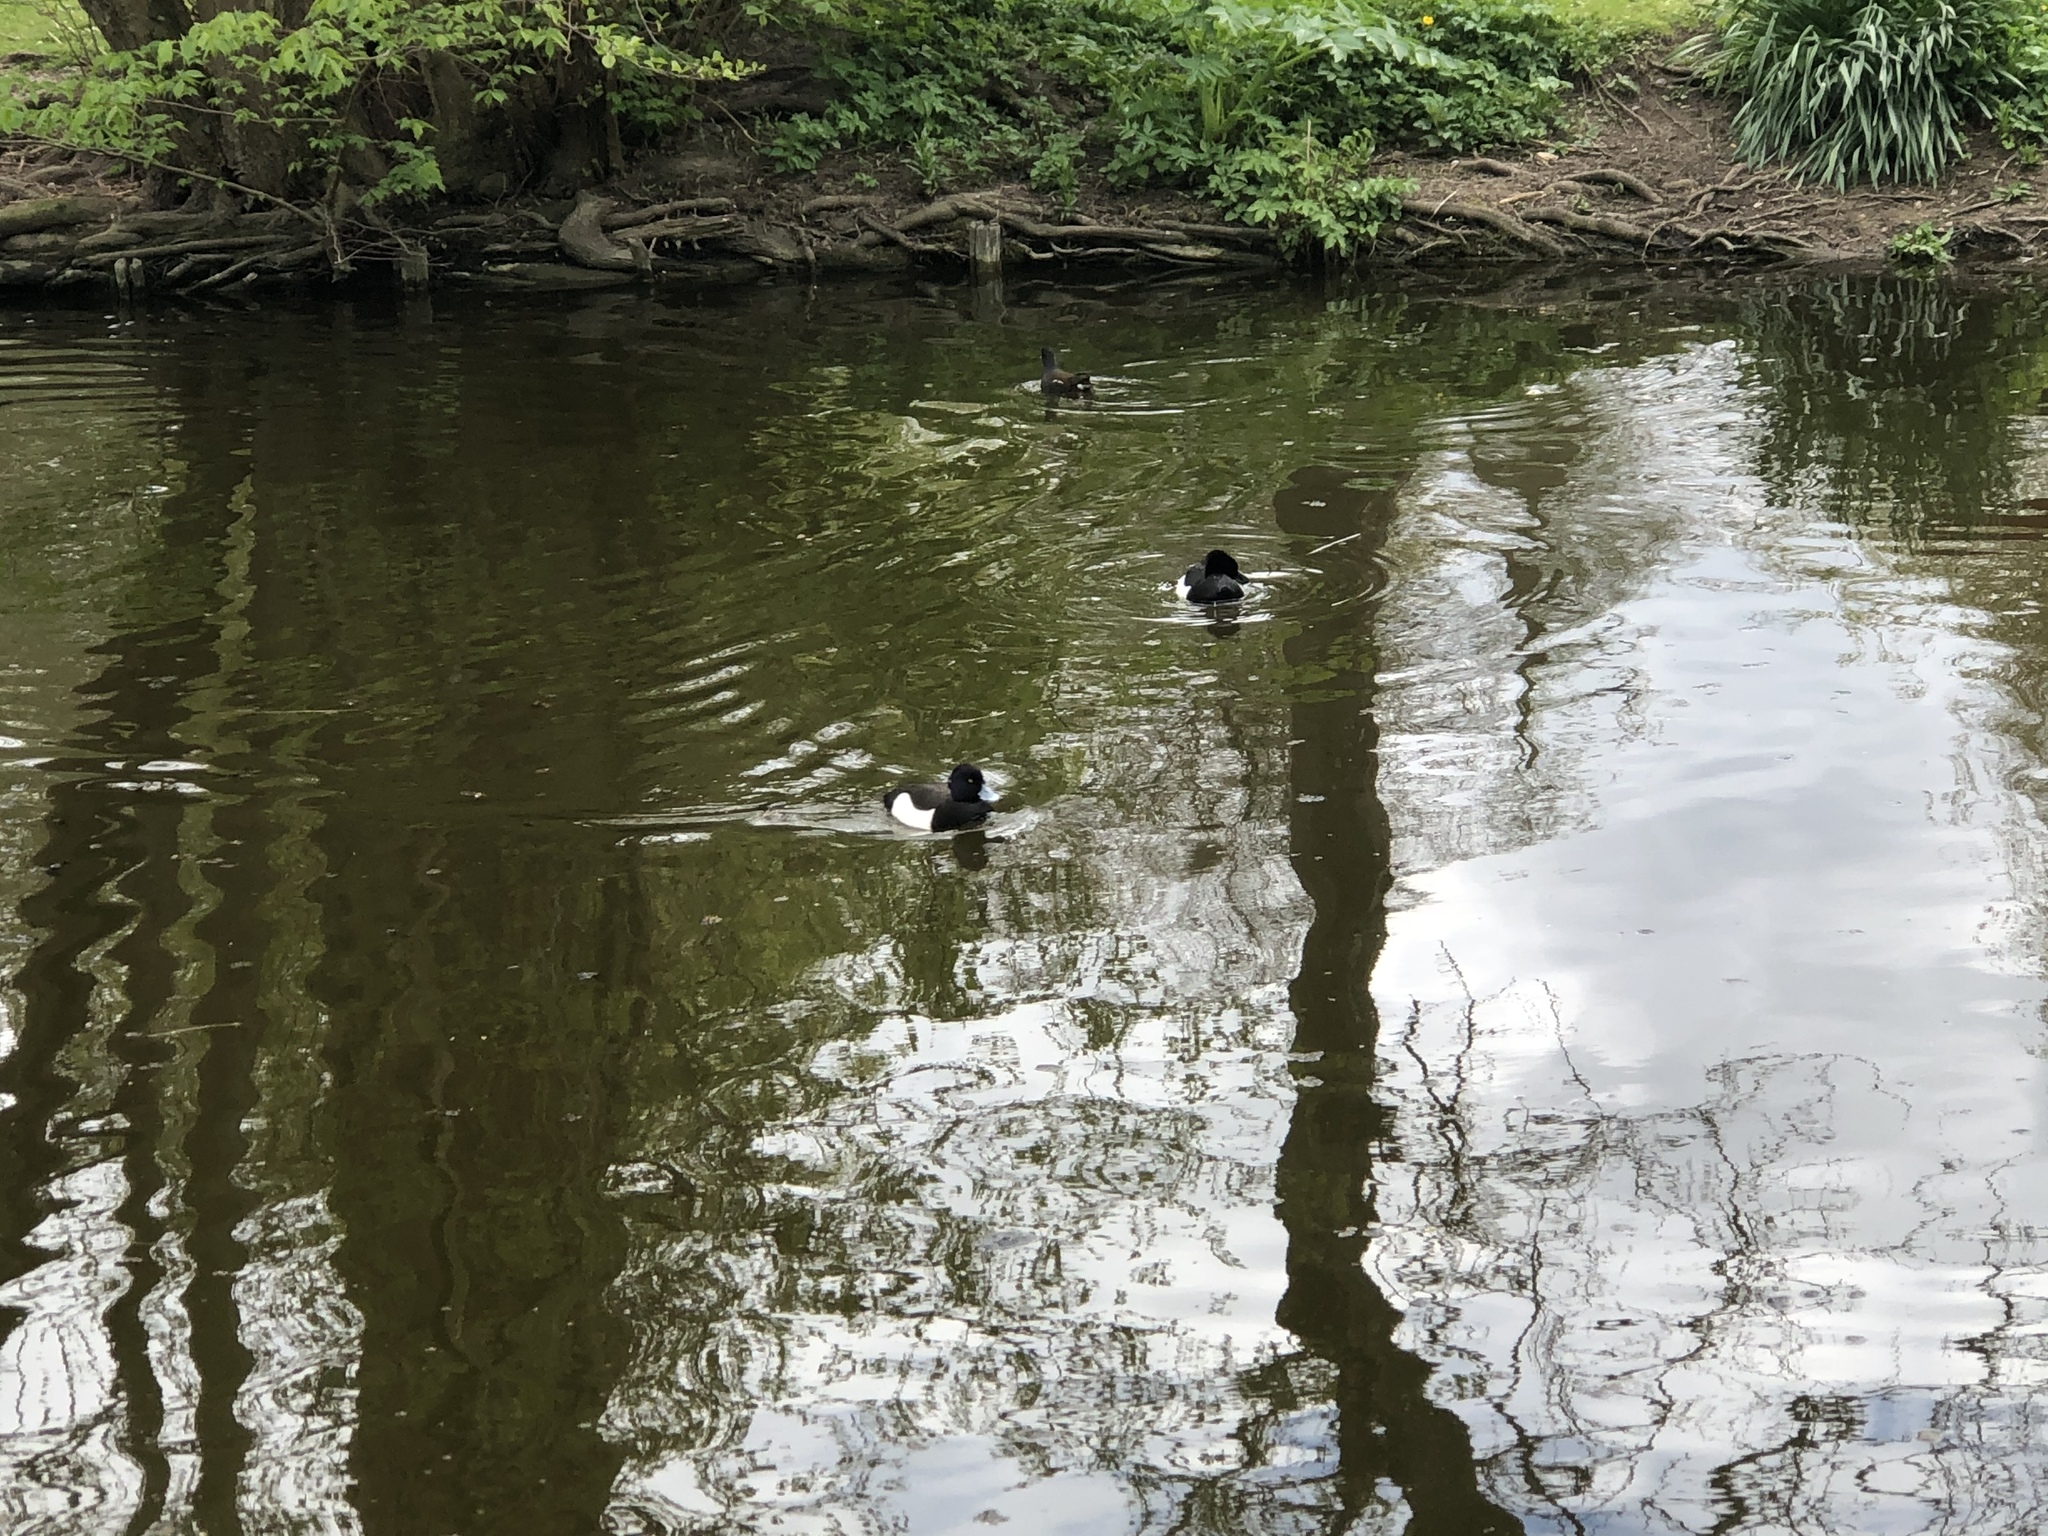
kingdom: Animalia
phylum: Chordata
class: Aves
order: Anseriformes
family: Anatidae
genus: Aythya
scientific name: Aythya fuligula
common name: Tufted duck
